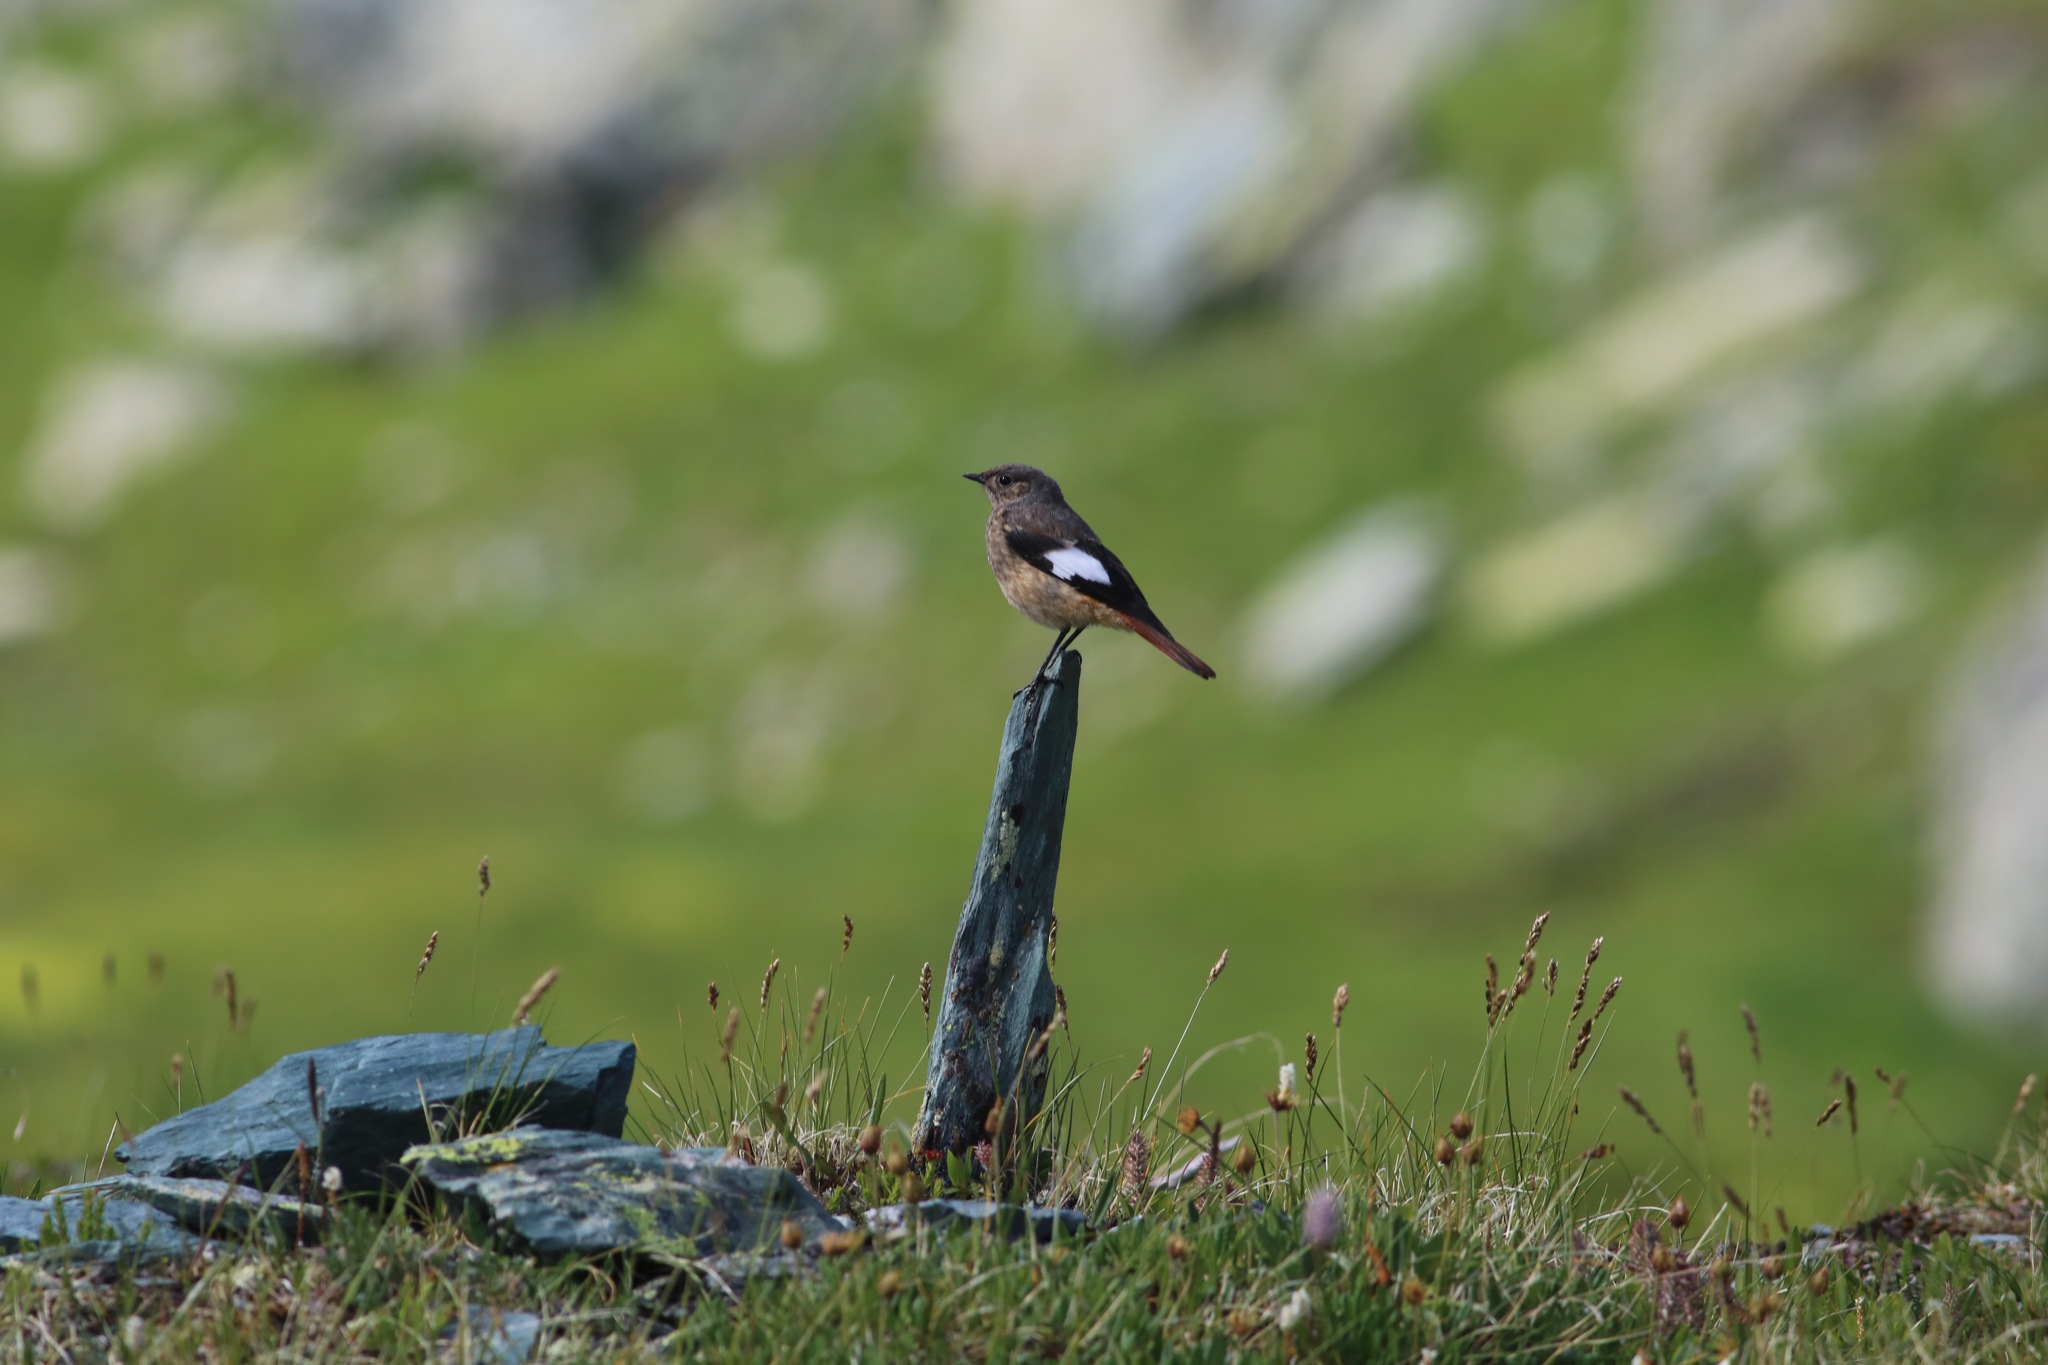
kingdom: Animalia
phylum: Chordata
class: Aves
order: Passeriformes
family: Muscicapidae
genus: Phoenicurus
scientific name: Phoenicurus erythrogastrus
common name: Güldenstädt's redstart
